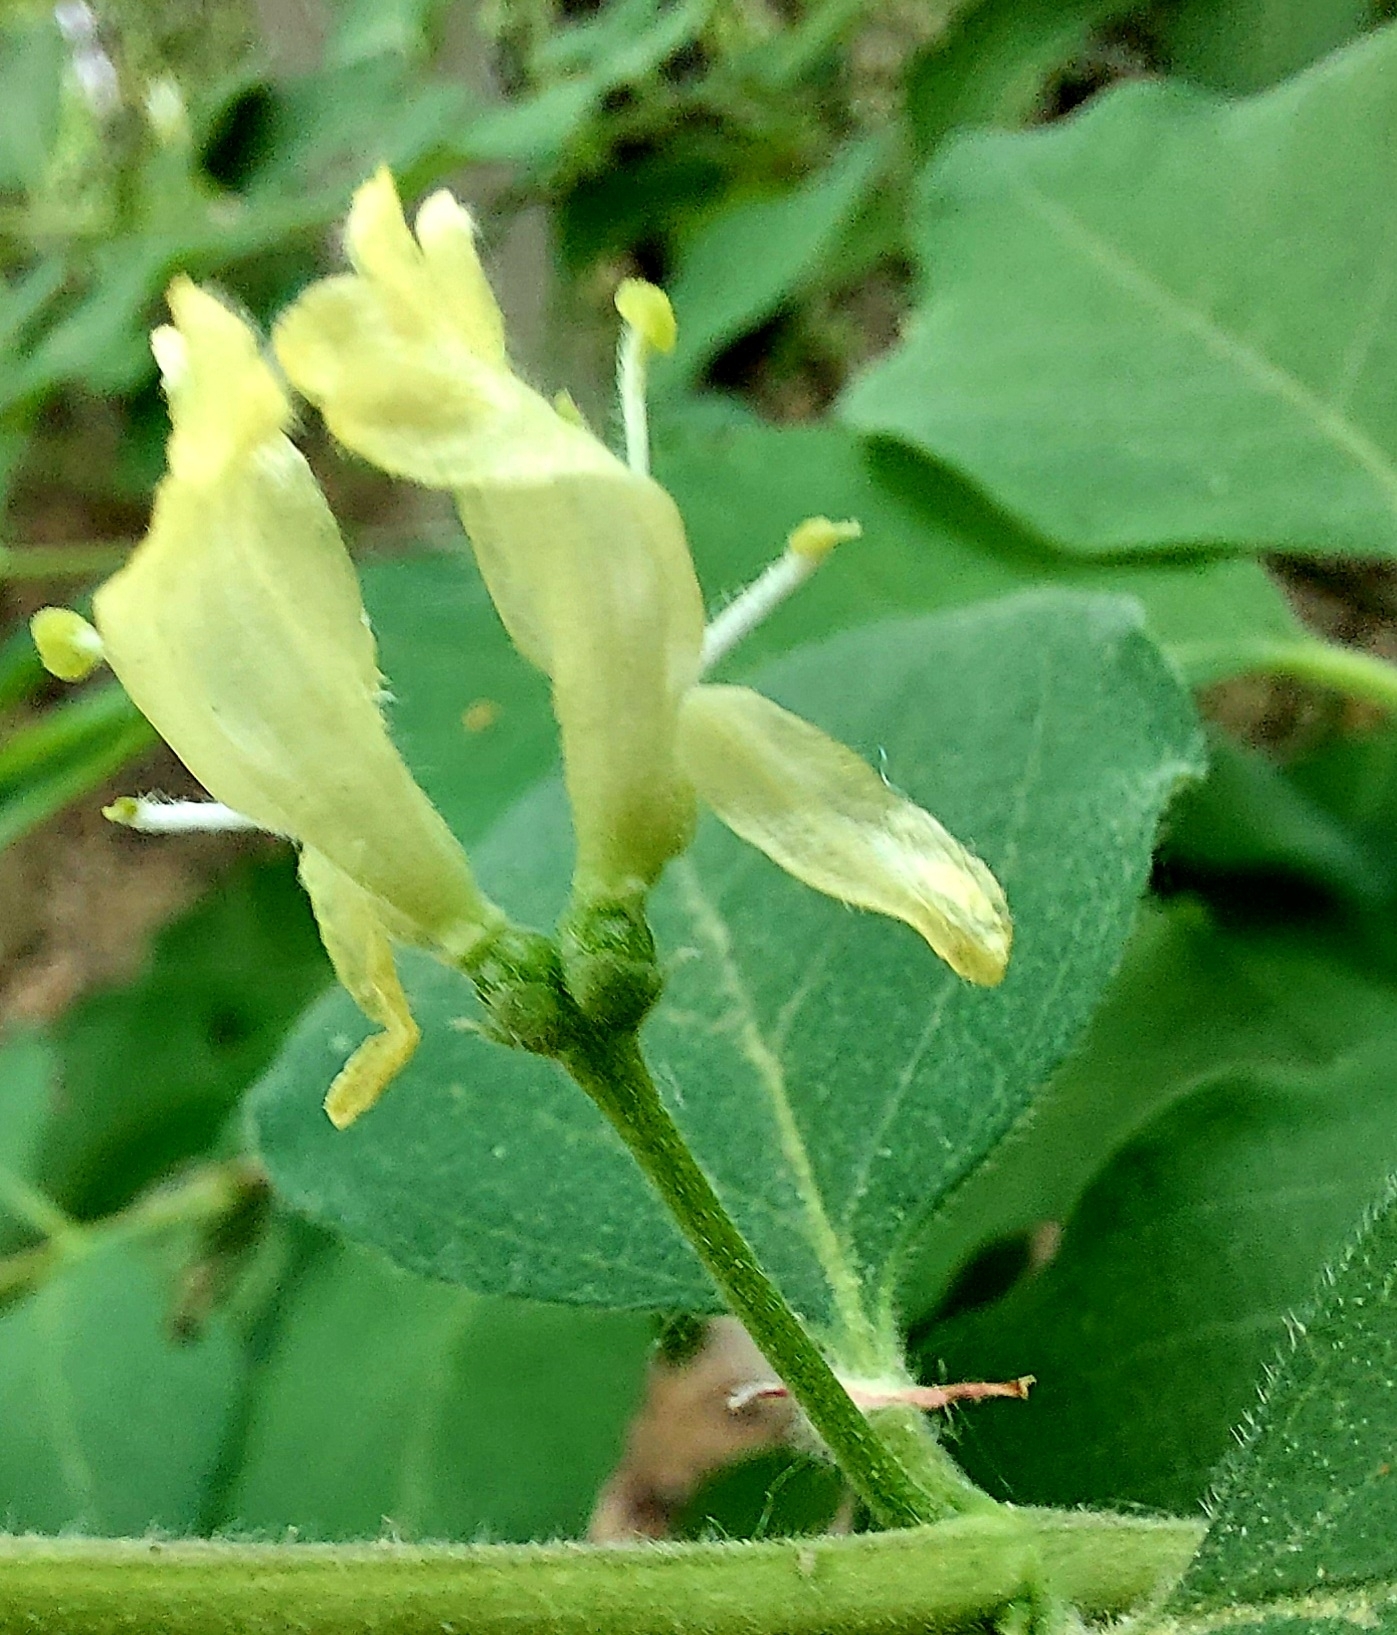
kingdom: Plantae
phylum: Tracheophyta
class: Magnoliopsida
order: Dipsacales
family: Caprifoliaceae
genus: Lonicera
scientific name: Lonicera xylosteum
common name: Fly honeysuckle
